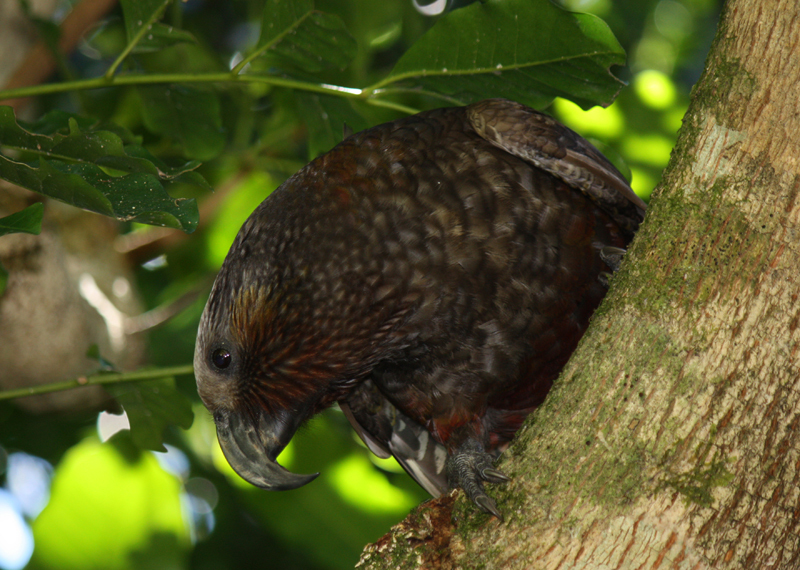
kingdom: Animalia
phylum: Chordata
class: Aves
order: Psittaciformes
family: Psittacidae
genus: Nestor
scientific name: Nestor meridionalis
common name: New zealand kaka
